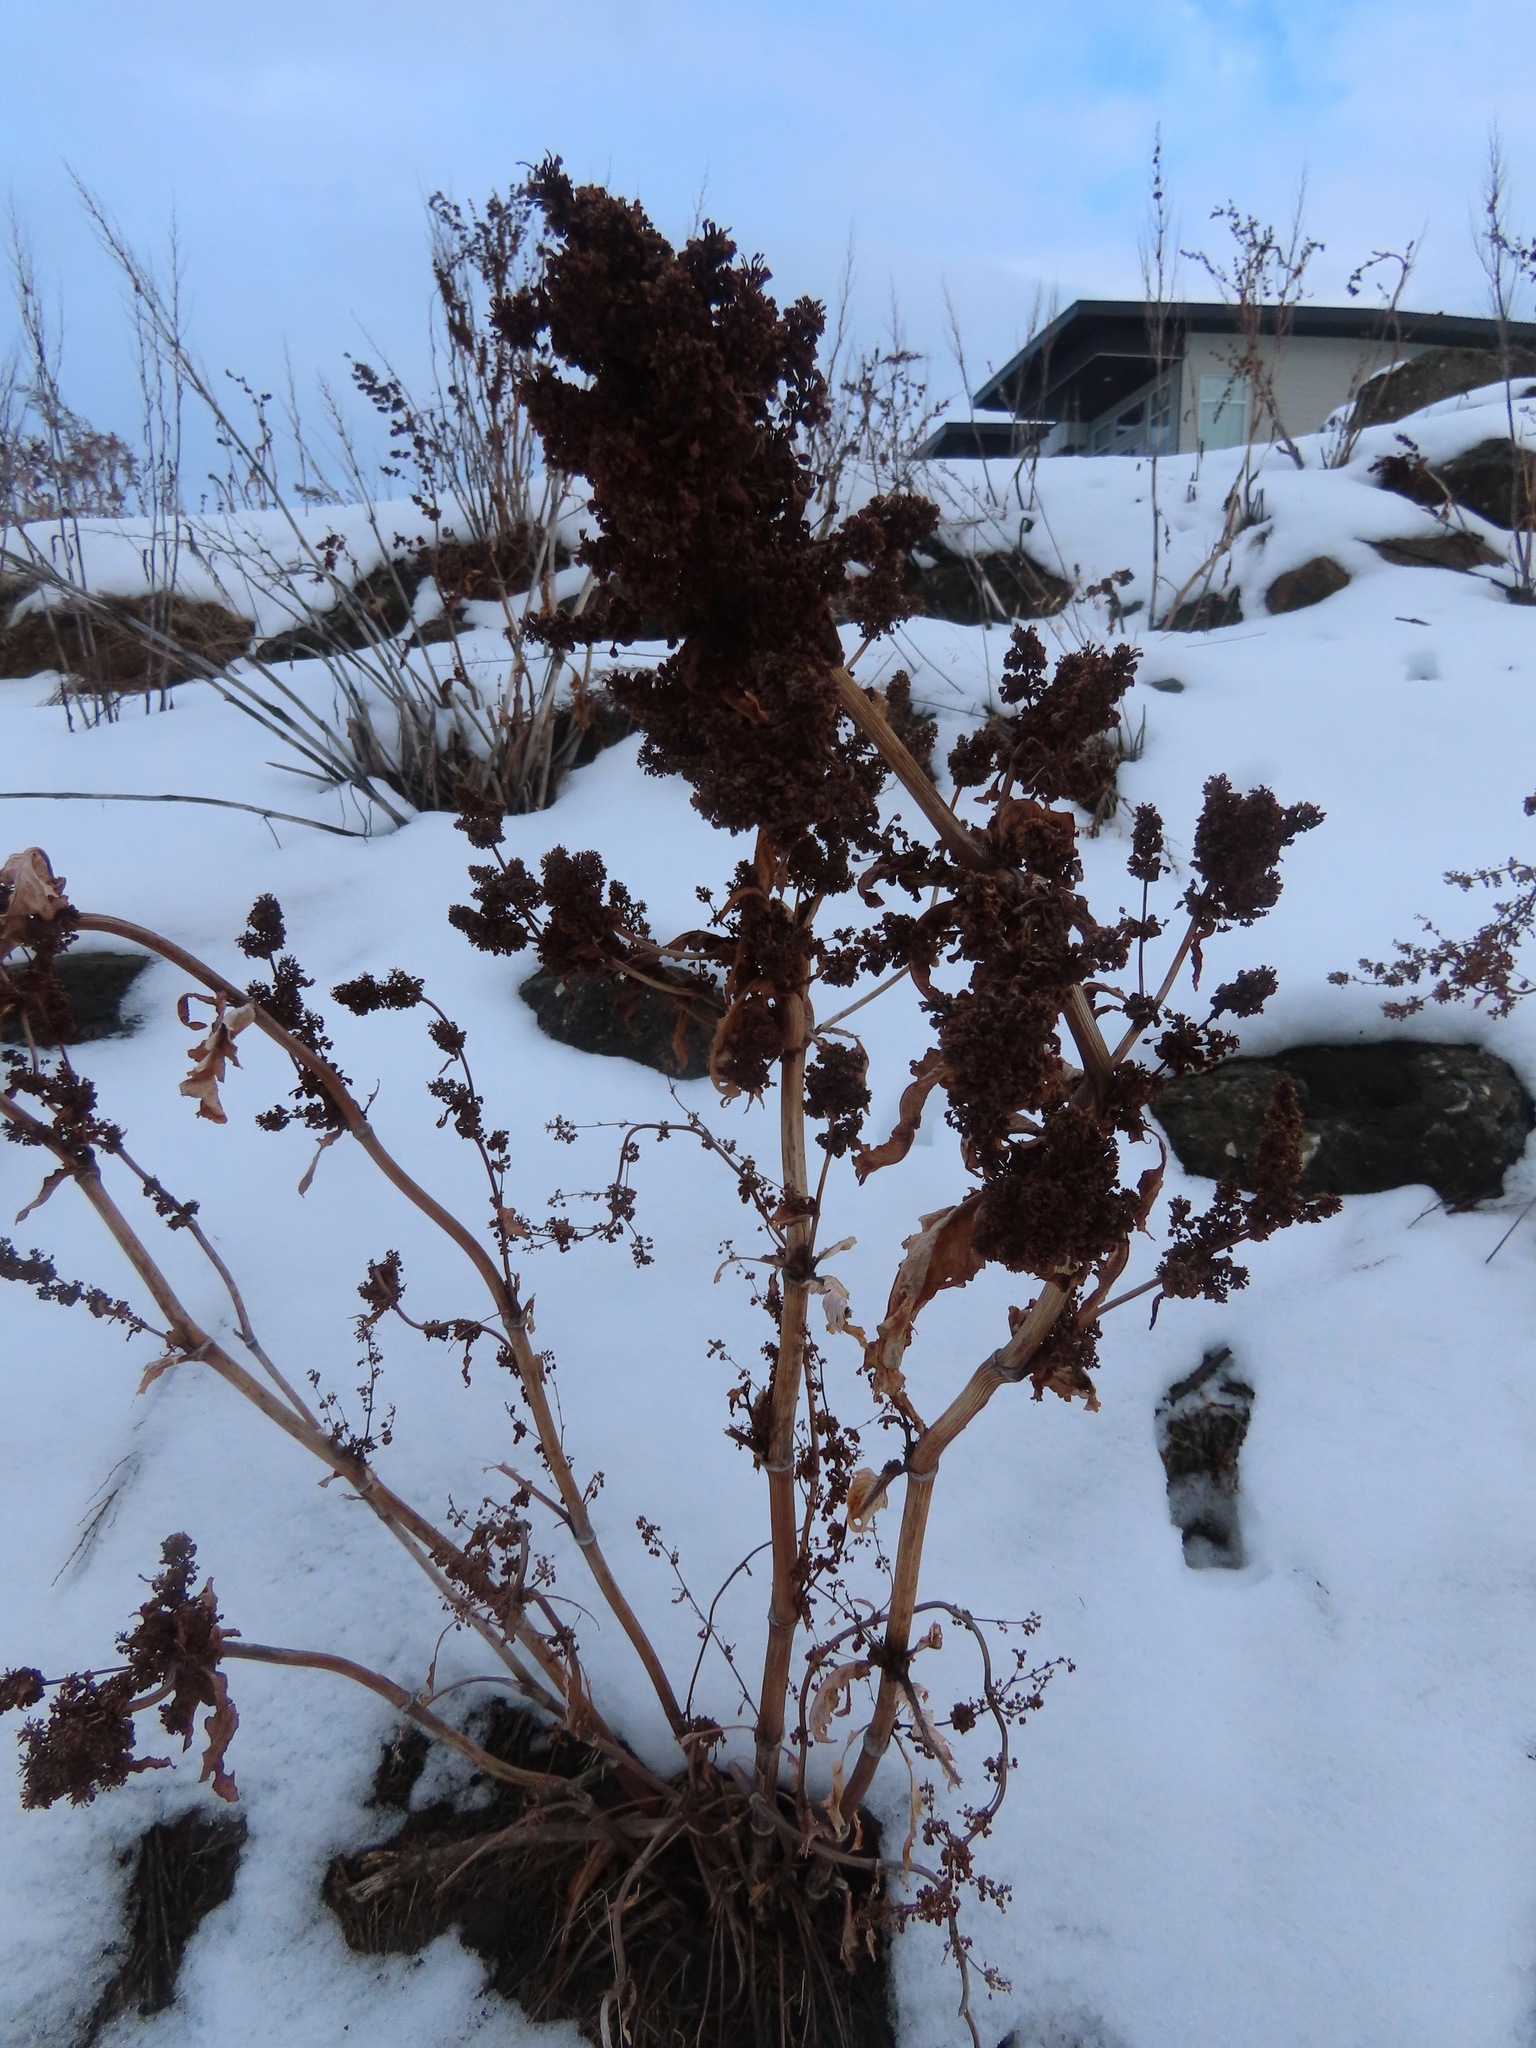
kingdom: Plantae
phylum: Tracheophyta
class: Magnoliopsida
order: Caryophyllales
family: Polygonaceae
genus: Rumex
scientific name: Rumex crispus
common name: Curled dock
